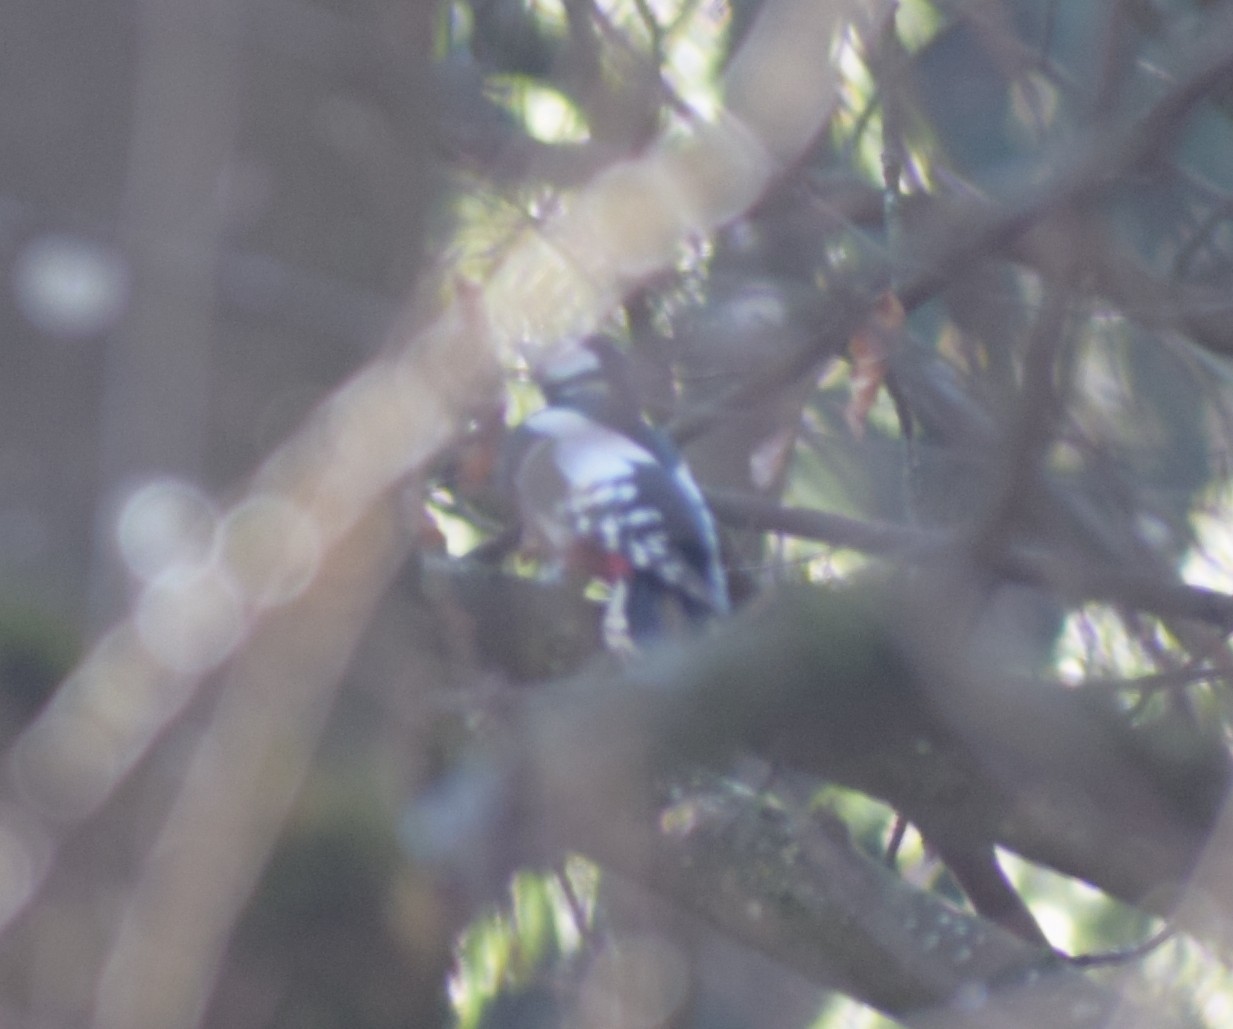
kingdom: Animalia
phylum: Chordata
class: Aves
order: Piciformes
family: Picidae
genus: Dendrocopos
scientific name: Dendrocopos major
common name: Great spotted woodpecker
